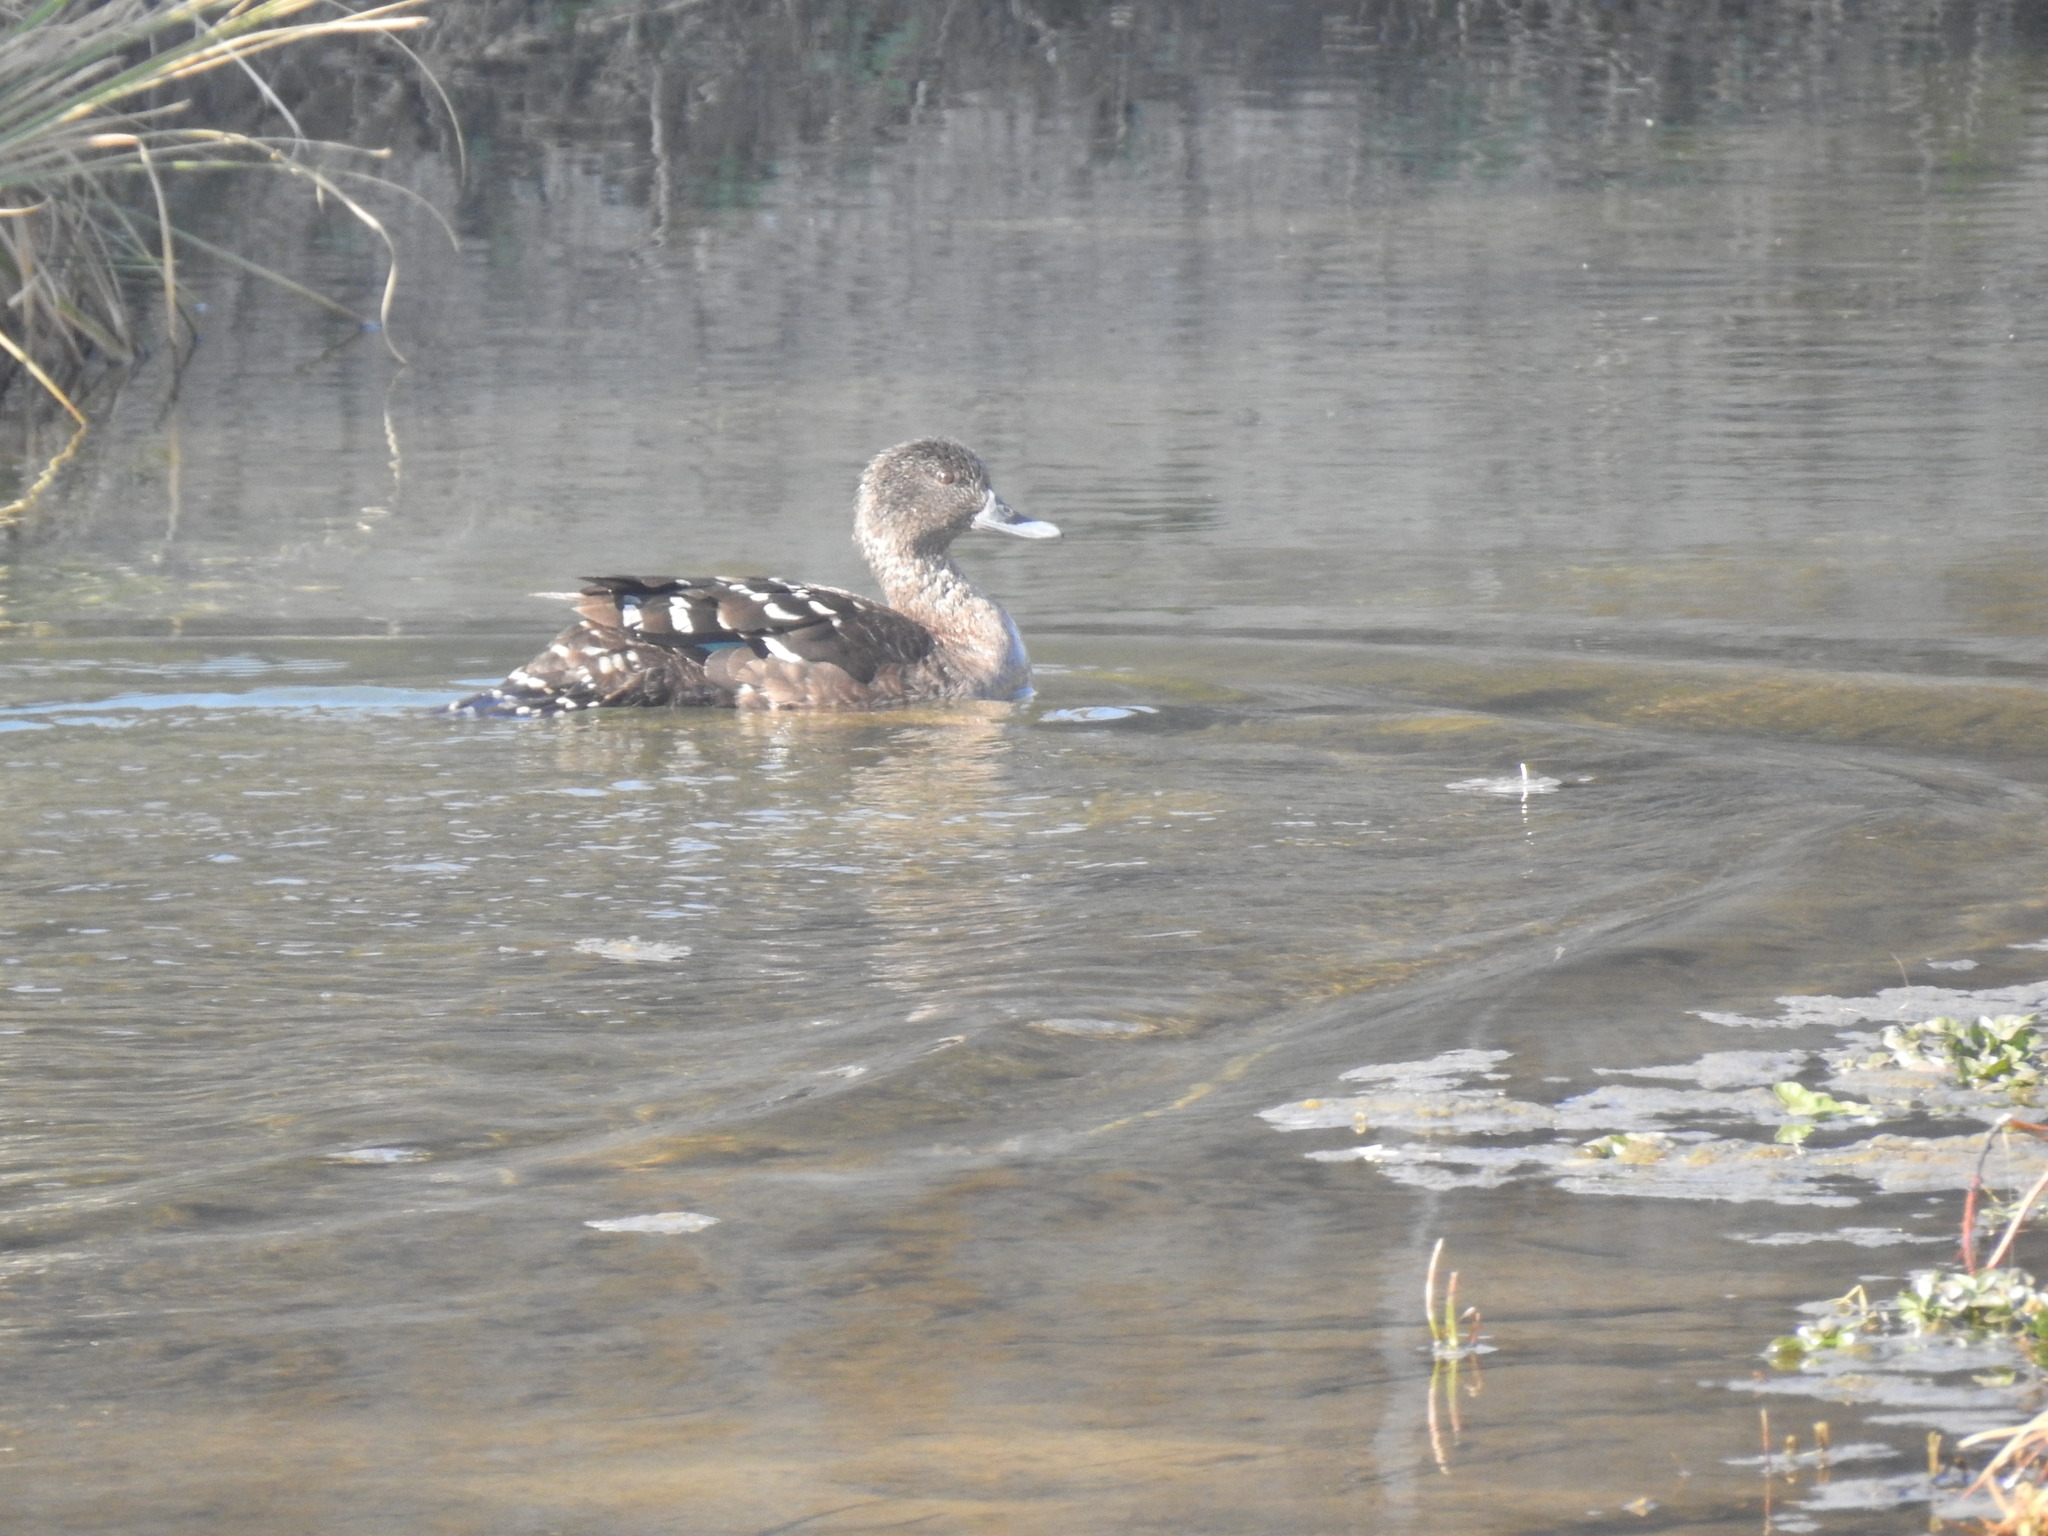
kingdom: Animalia
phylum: Chordata
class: Aves
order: Anseriformes
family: Anatidae
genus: Anas
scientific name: Anas sparsa
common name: African black duck
